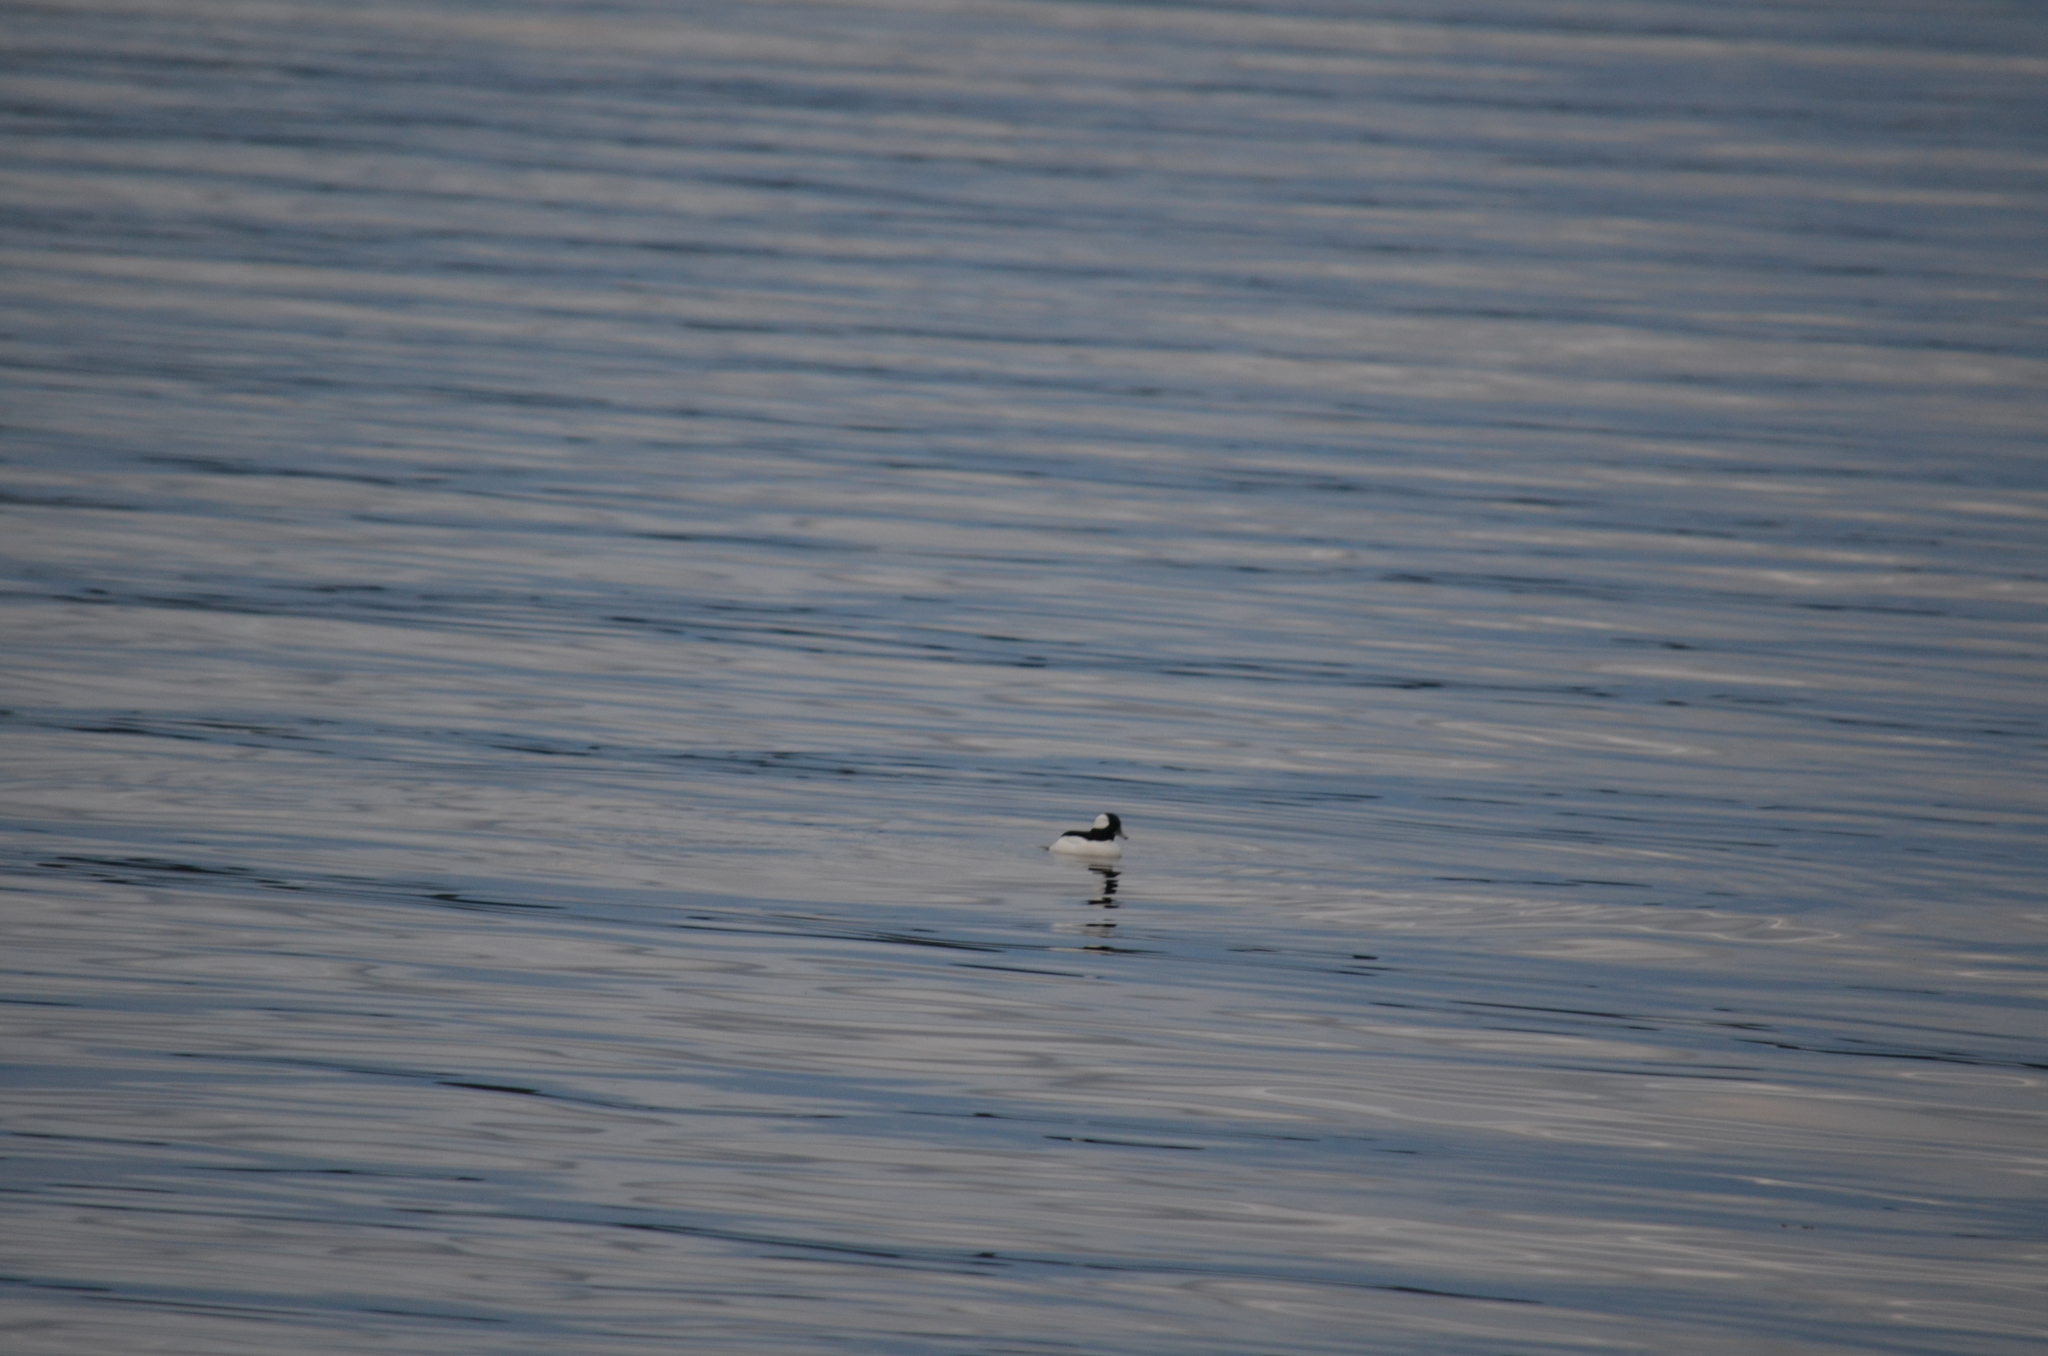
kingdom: Animalia
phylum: Chordata
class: Aves
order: Anseriformes
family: Anatidae
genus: Bucephala
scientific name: Bucephala albeola
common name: Bufflehead
